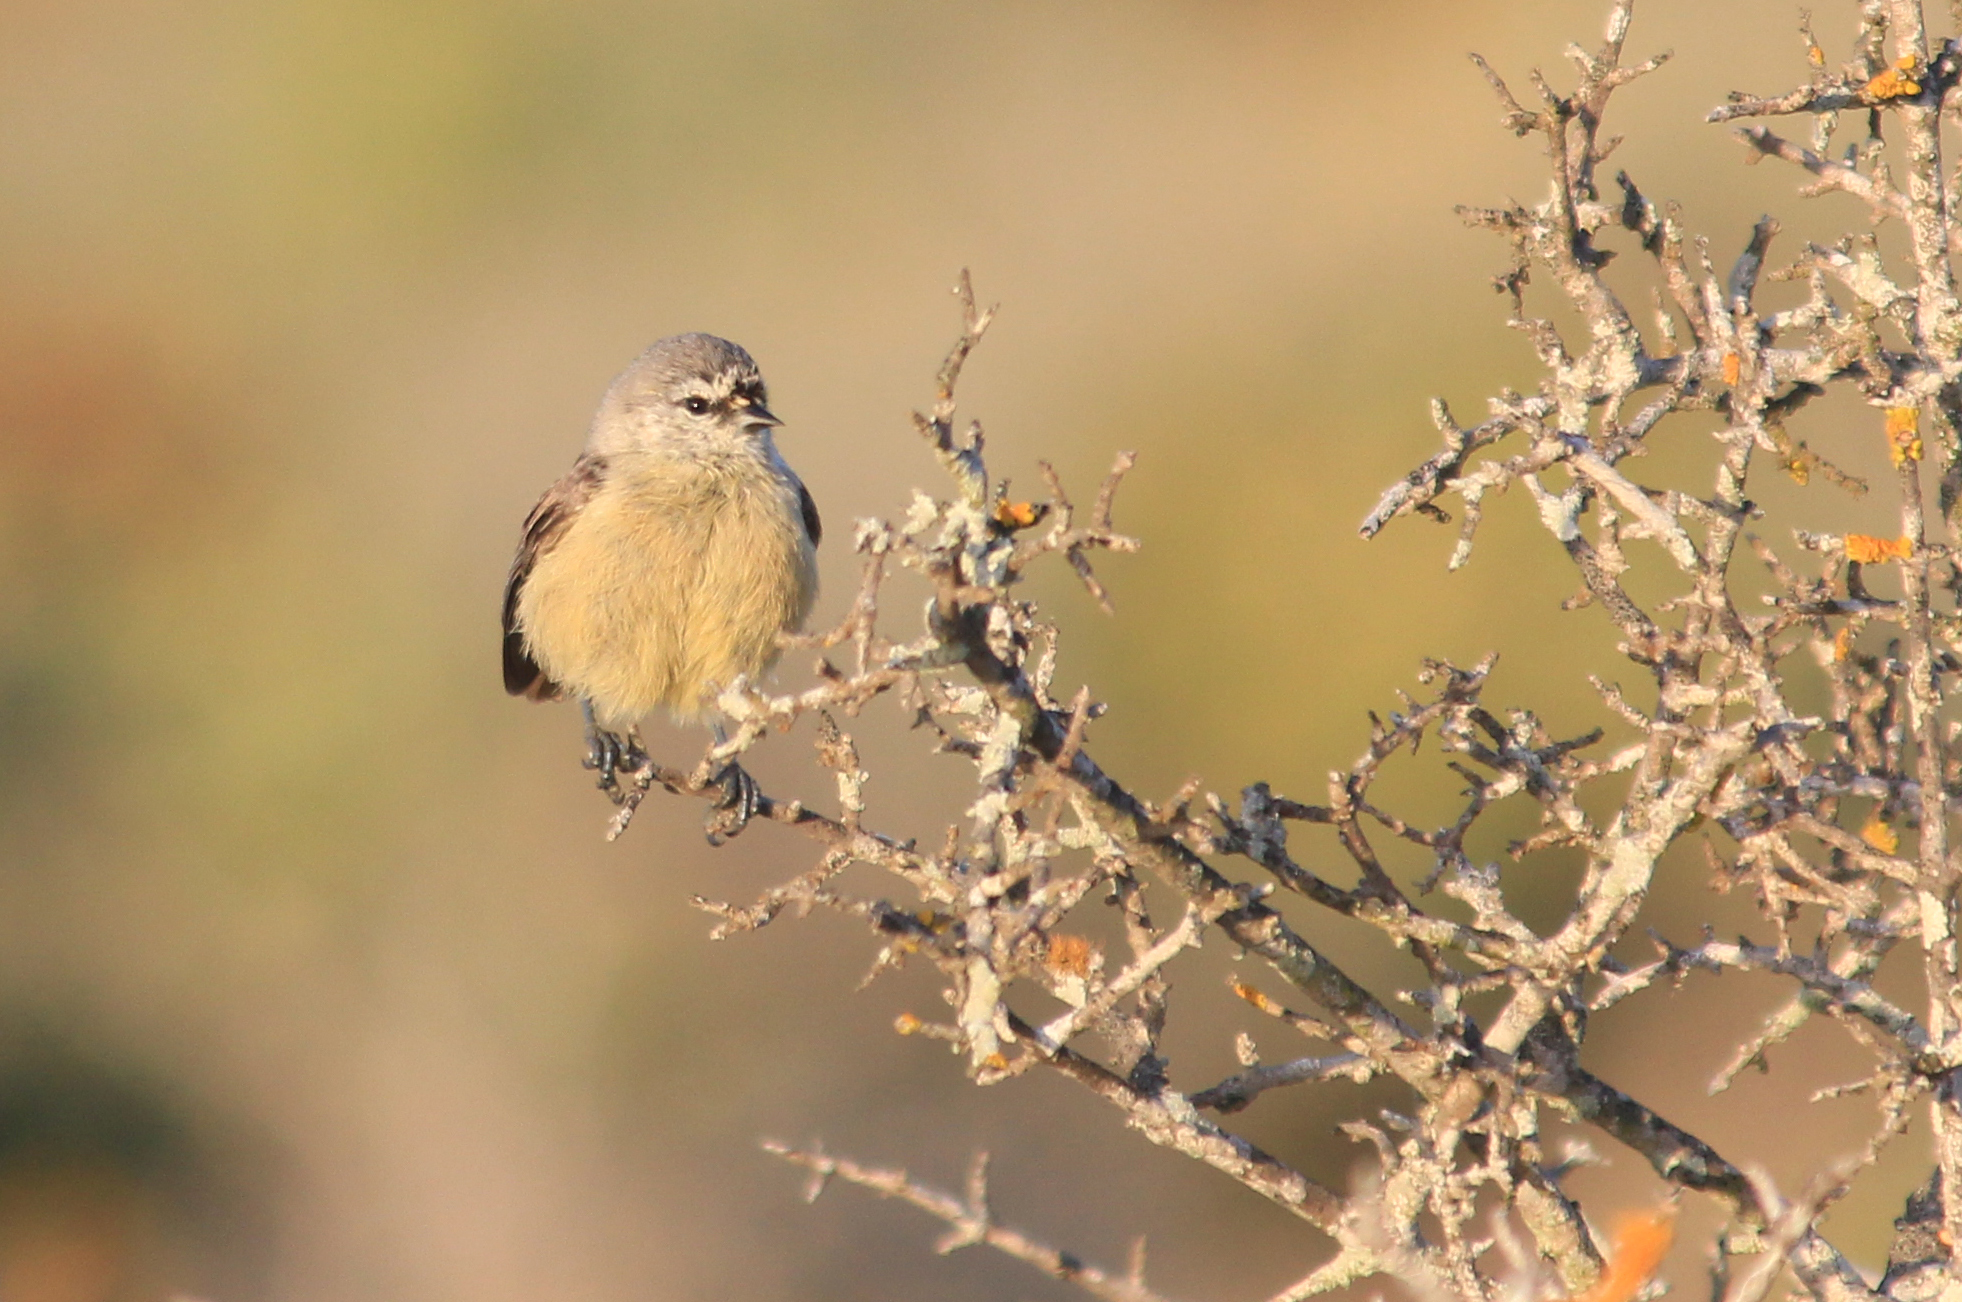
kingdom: Animalia
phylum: Chordata
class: Aves
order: Passeriformes
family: Remizidae
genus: Anthoscopus
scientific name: Anthoscopus minutus
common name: Cape penduline tit
